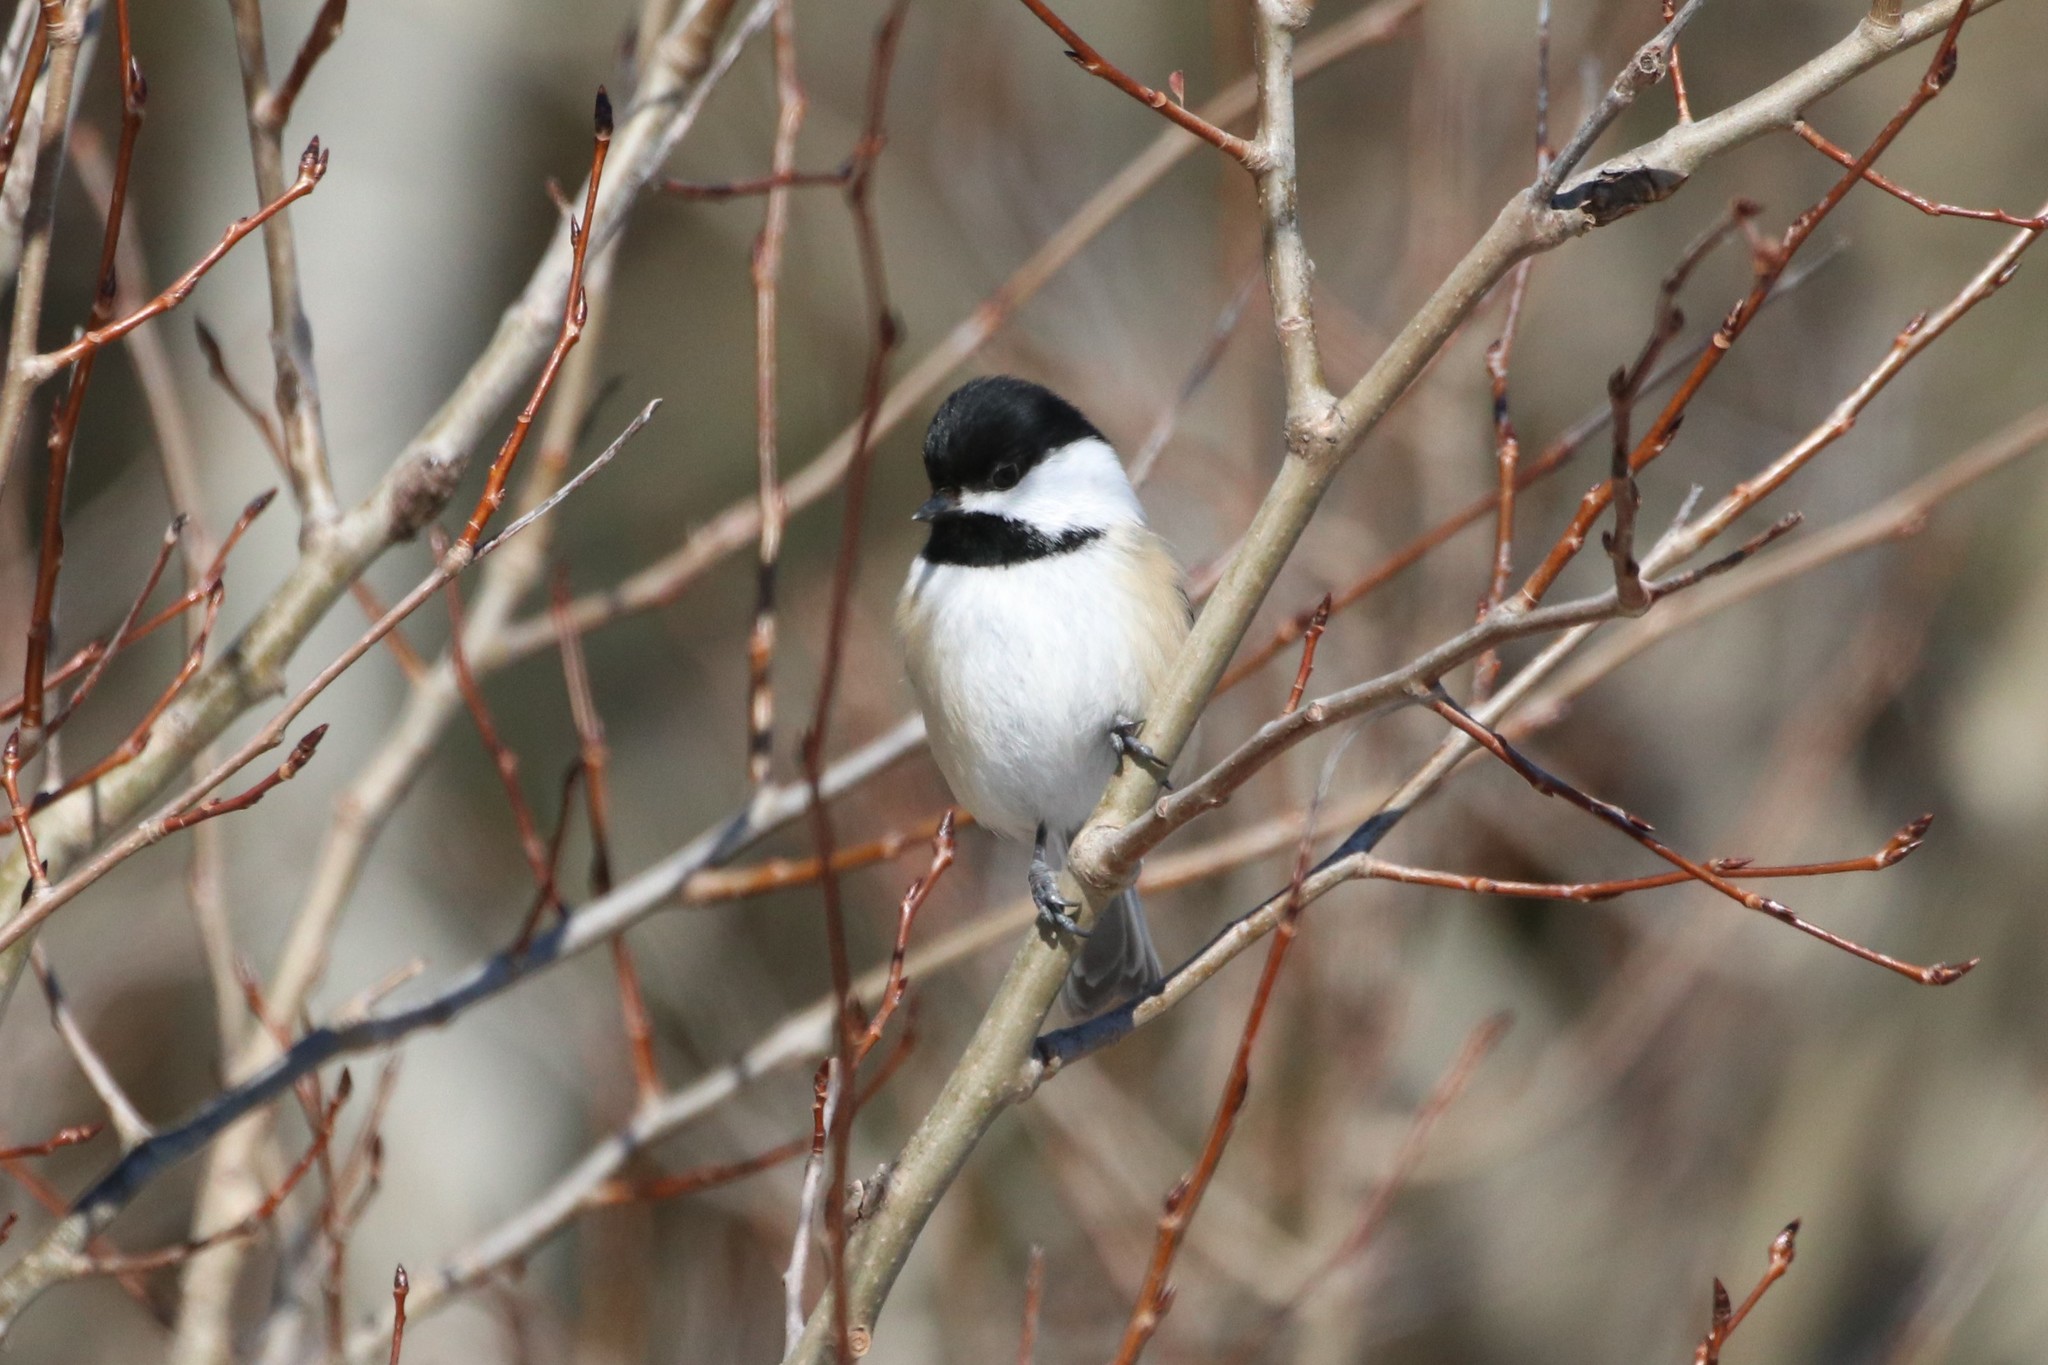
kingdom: Animalia
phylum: Chordata
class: Aves
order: Passeriformes
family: Paridae
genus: Poecile
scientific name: Poecile atricapillus
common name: Black-capped chickadee
